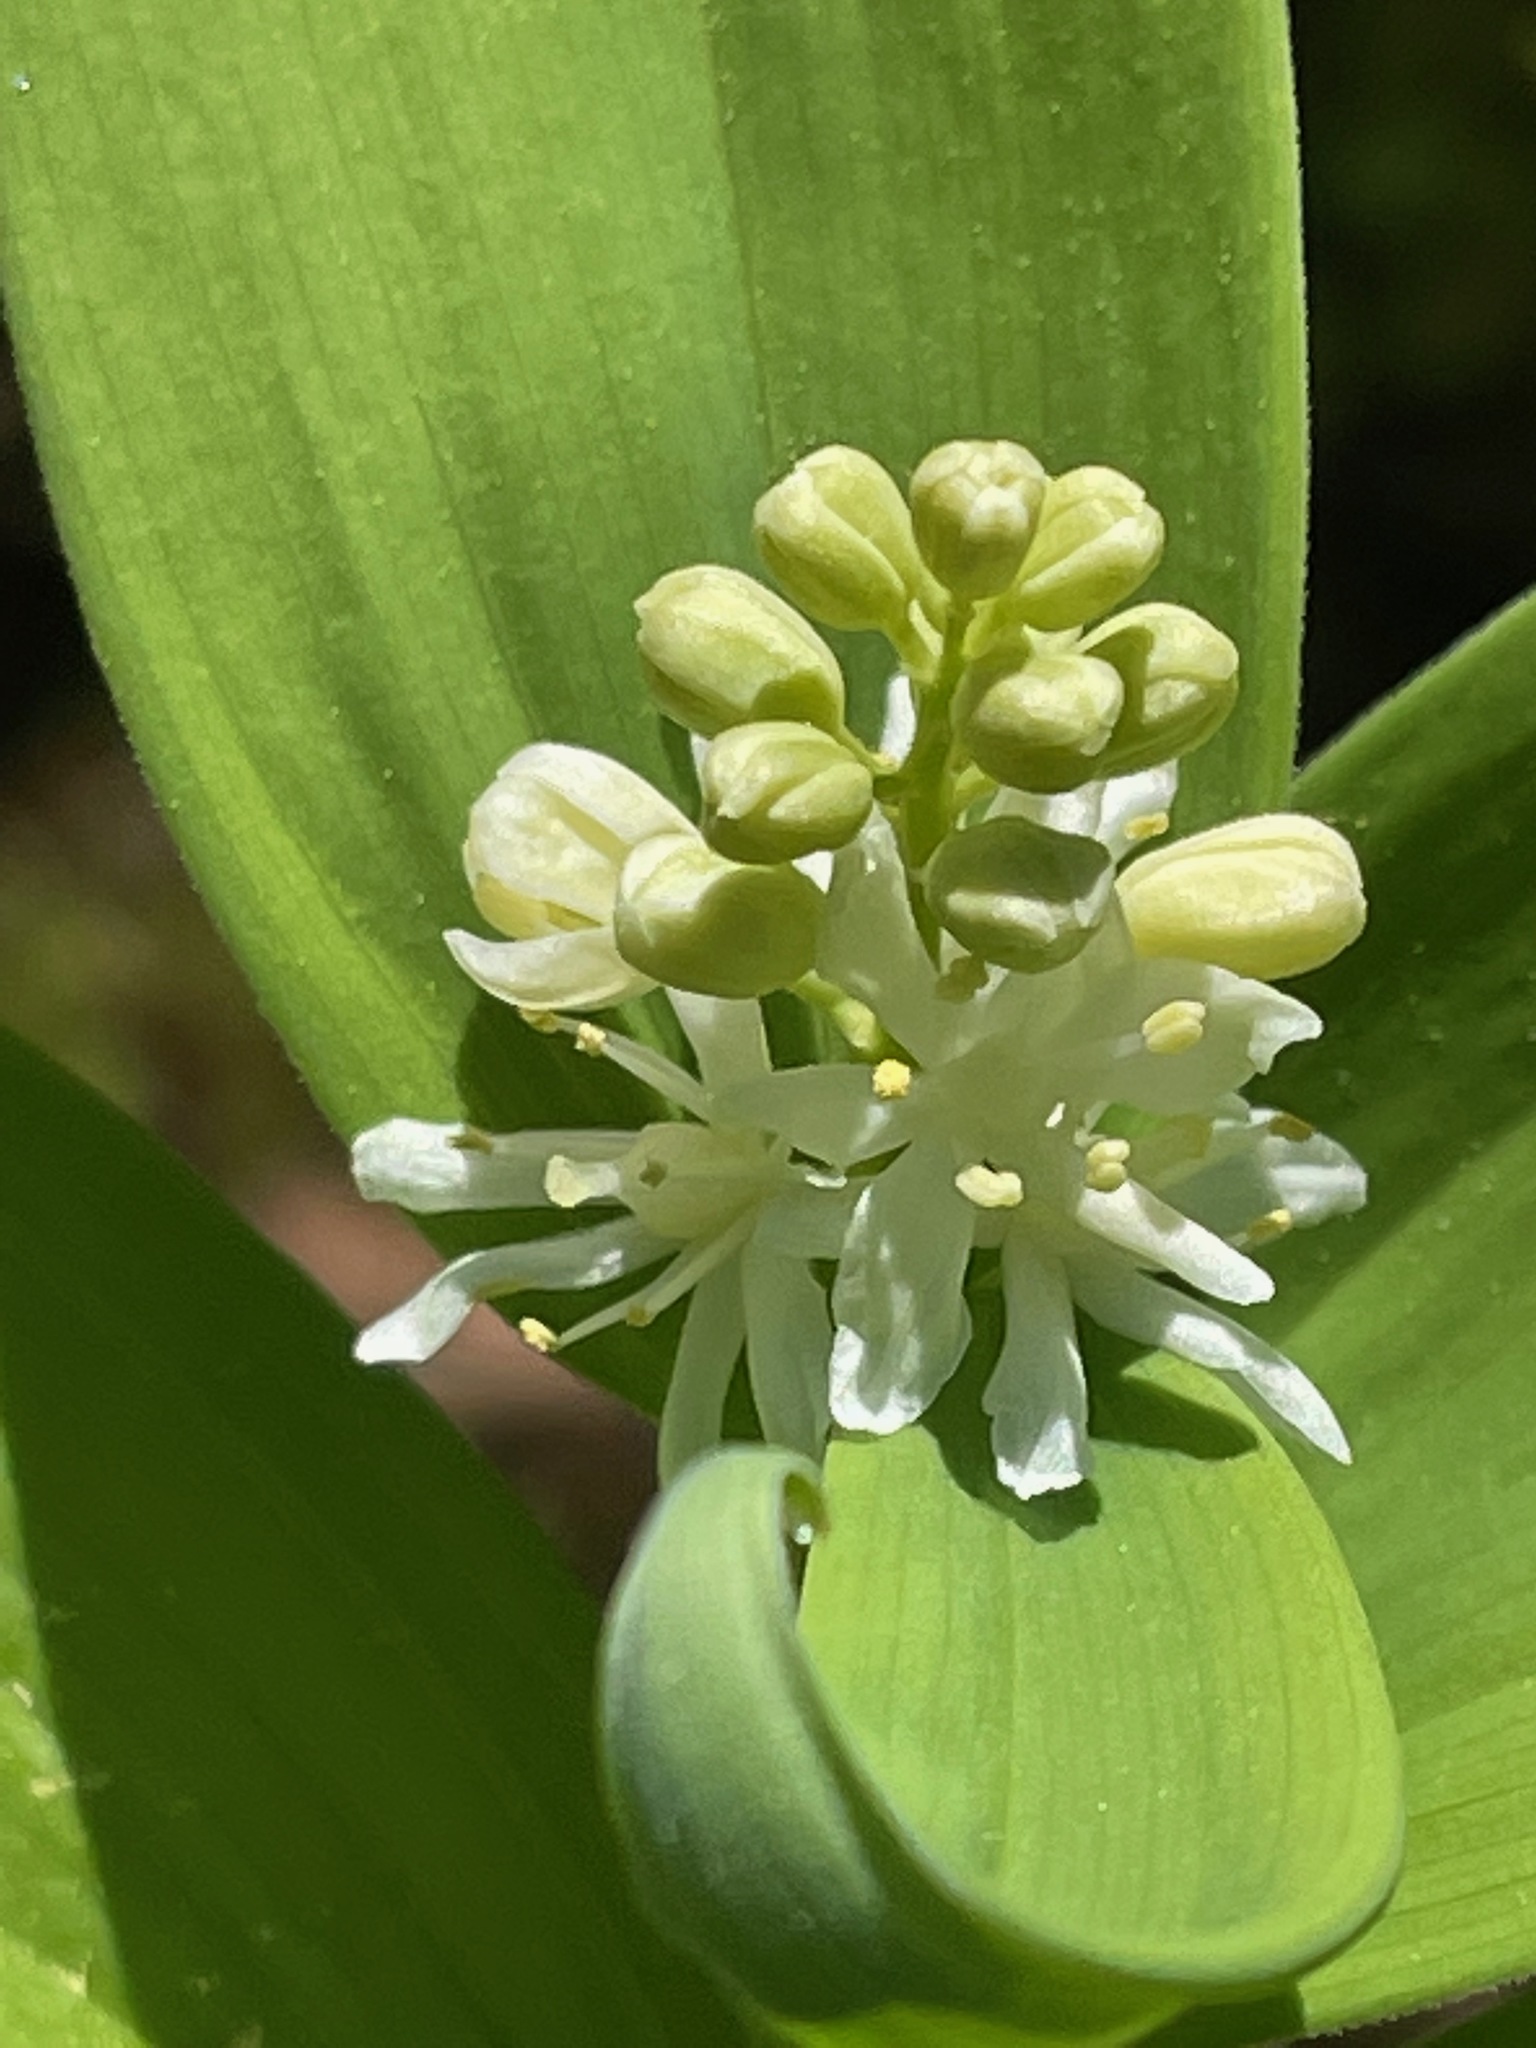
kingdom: Plantae
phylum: Tracheophyta
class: Liliopsida
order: Asparagales
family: Asparagaceae
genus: Maianthemum
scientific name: Maianthemum stellatum
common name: Little false solomon's seal
